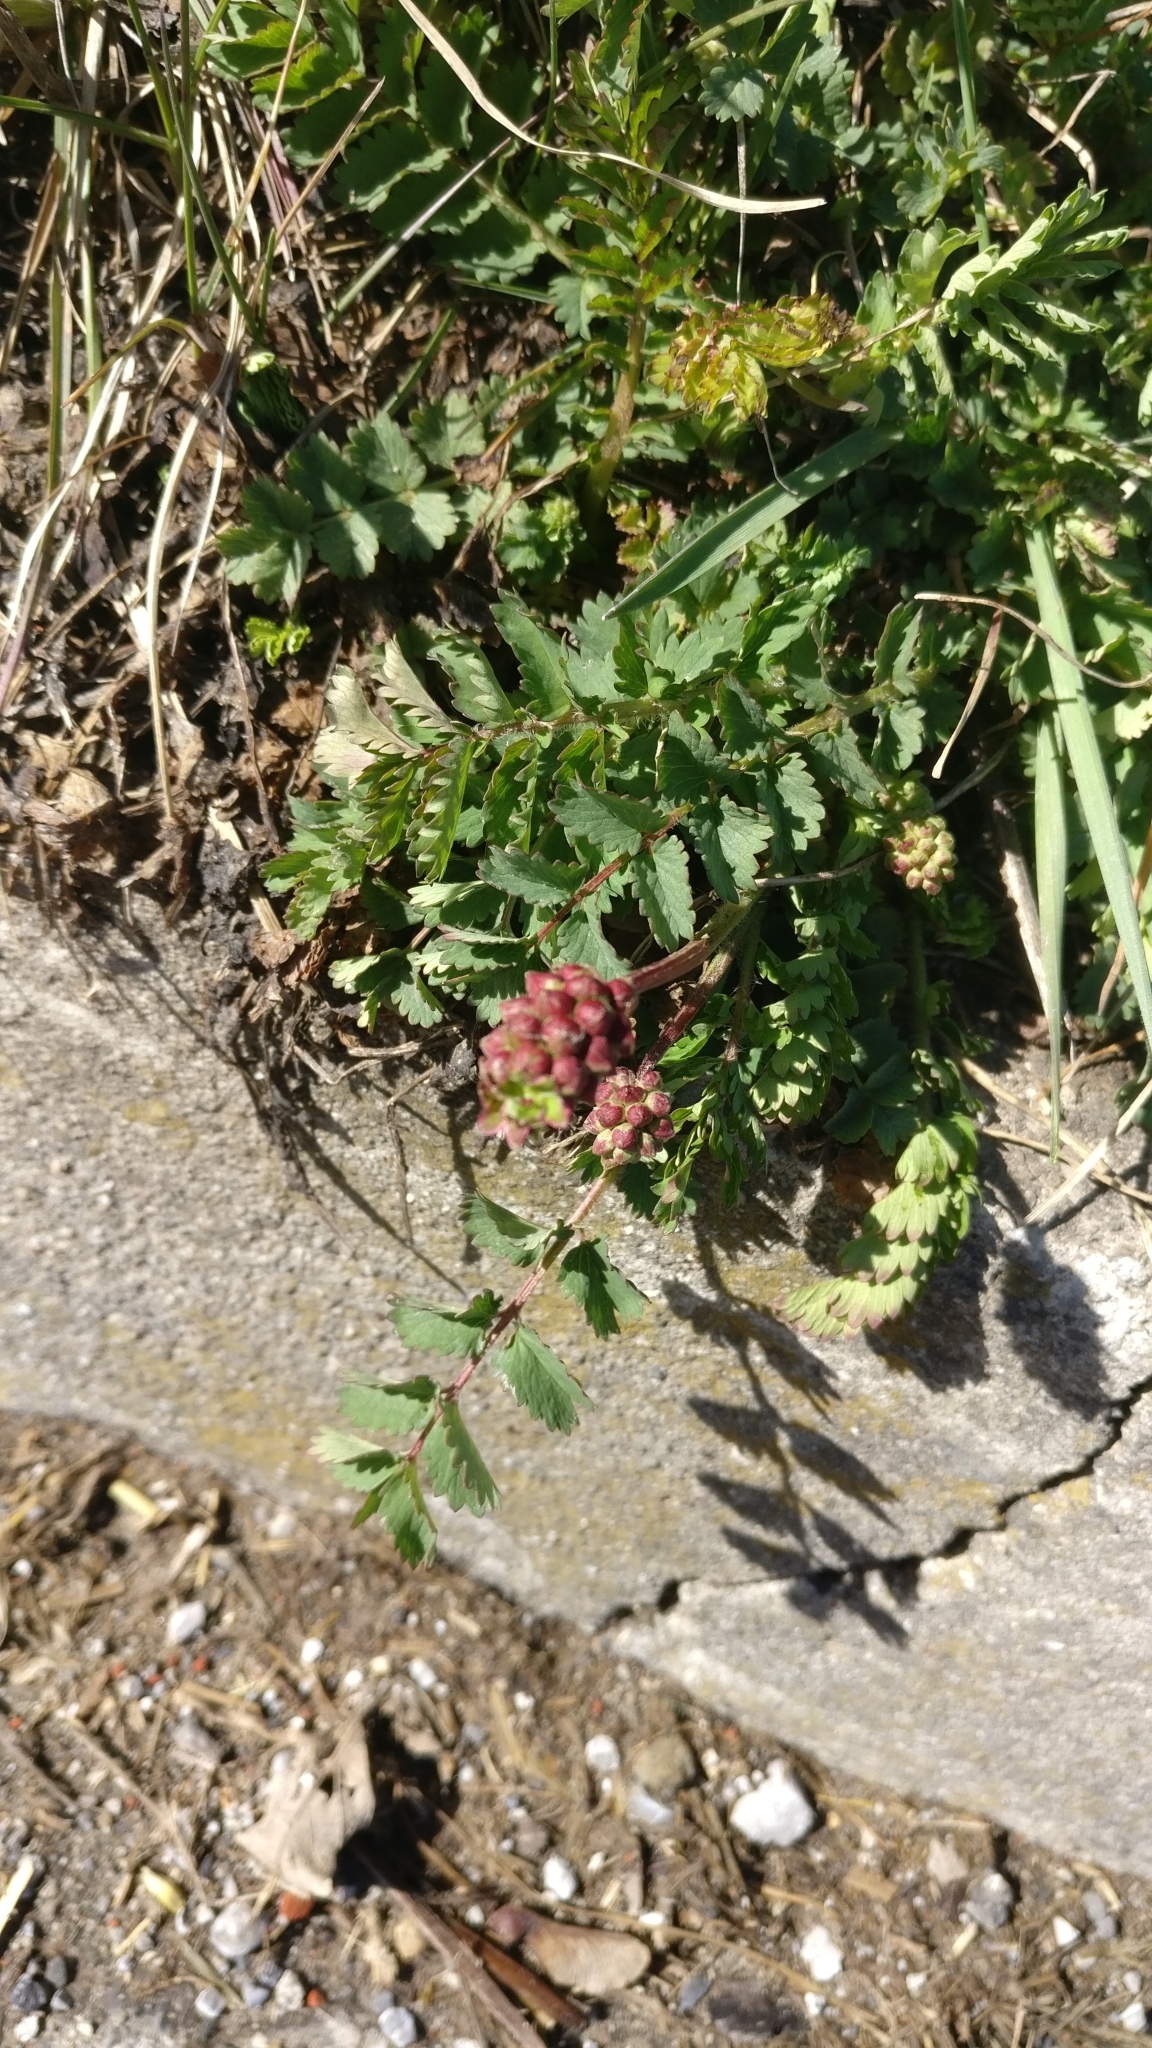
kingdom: Plantae
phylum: Tracheophyta
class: Magnoliopsida
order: Rosales
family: Rosaceae
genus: Poterium
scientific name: Poterium sanguisorba
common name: Salad burnet
